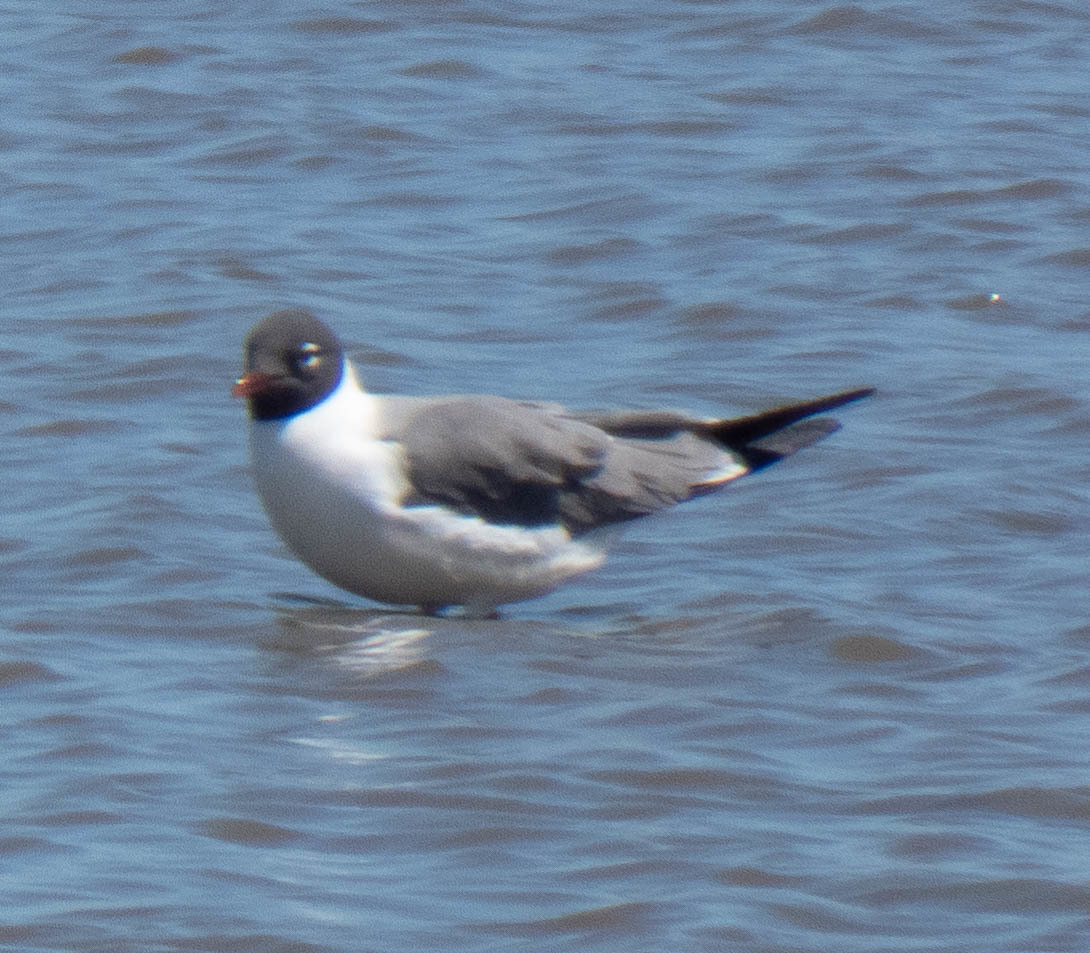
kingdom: Animalia
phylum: Chordata
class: Aves
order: Charadriiformes
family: Laridae
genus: Leucophaeus
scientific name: Leucophaeus atricilla
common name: Laughing gull
